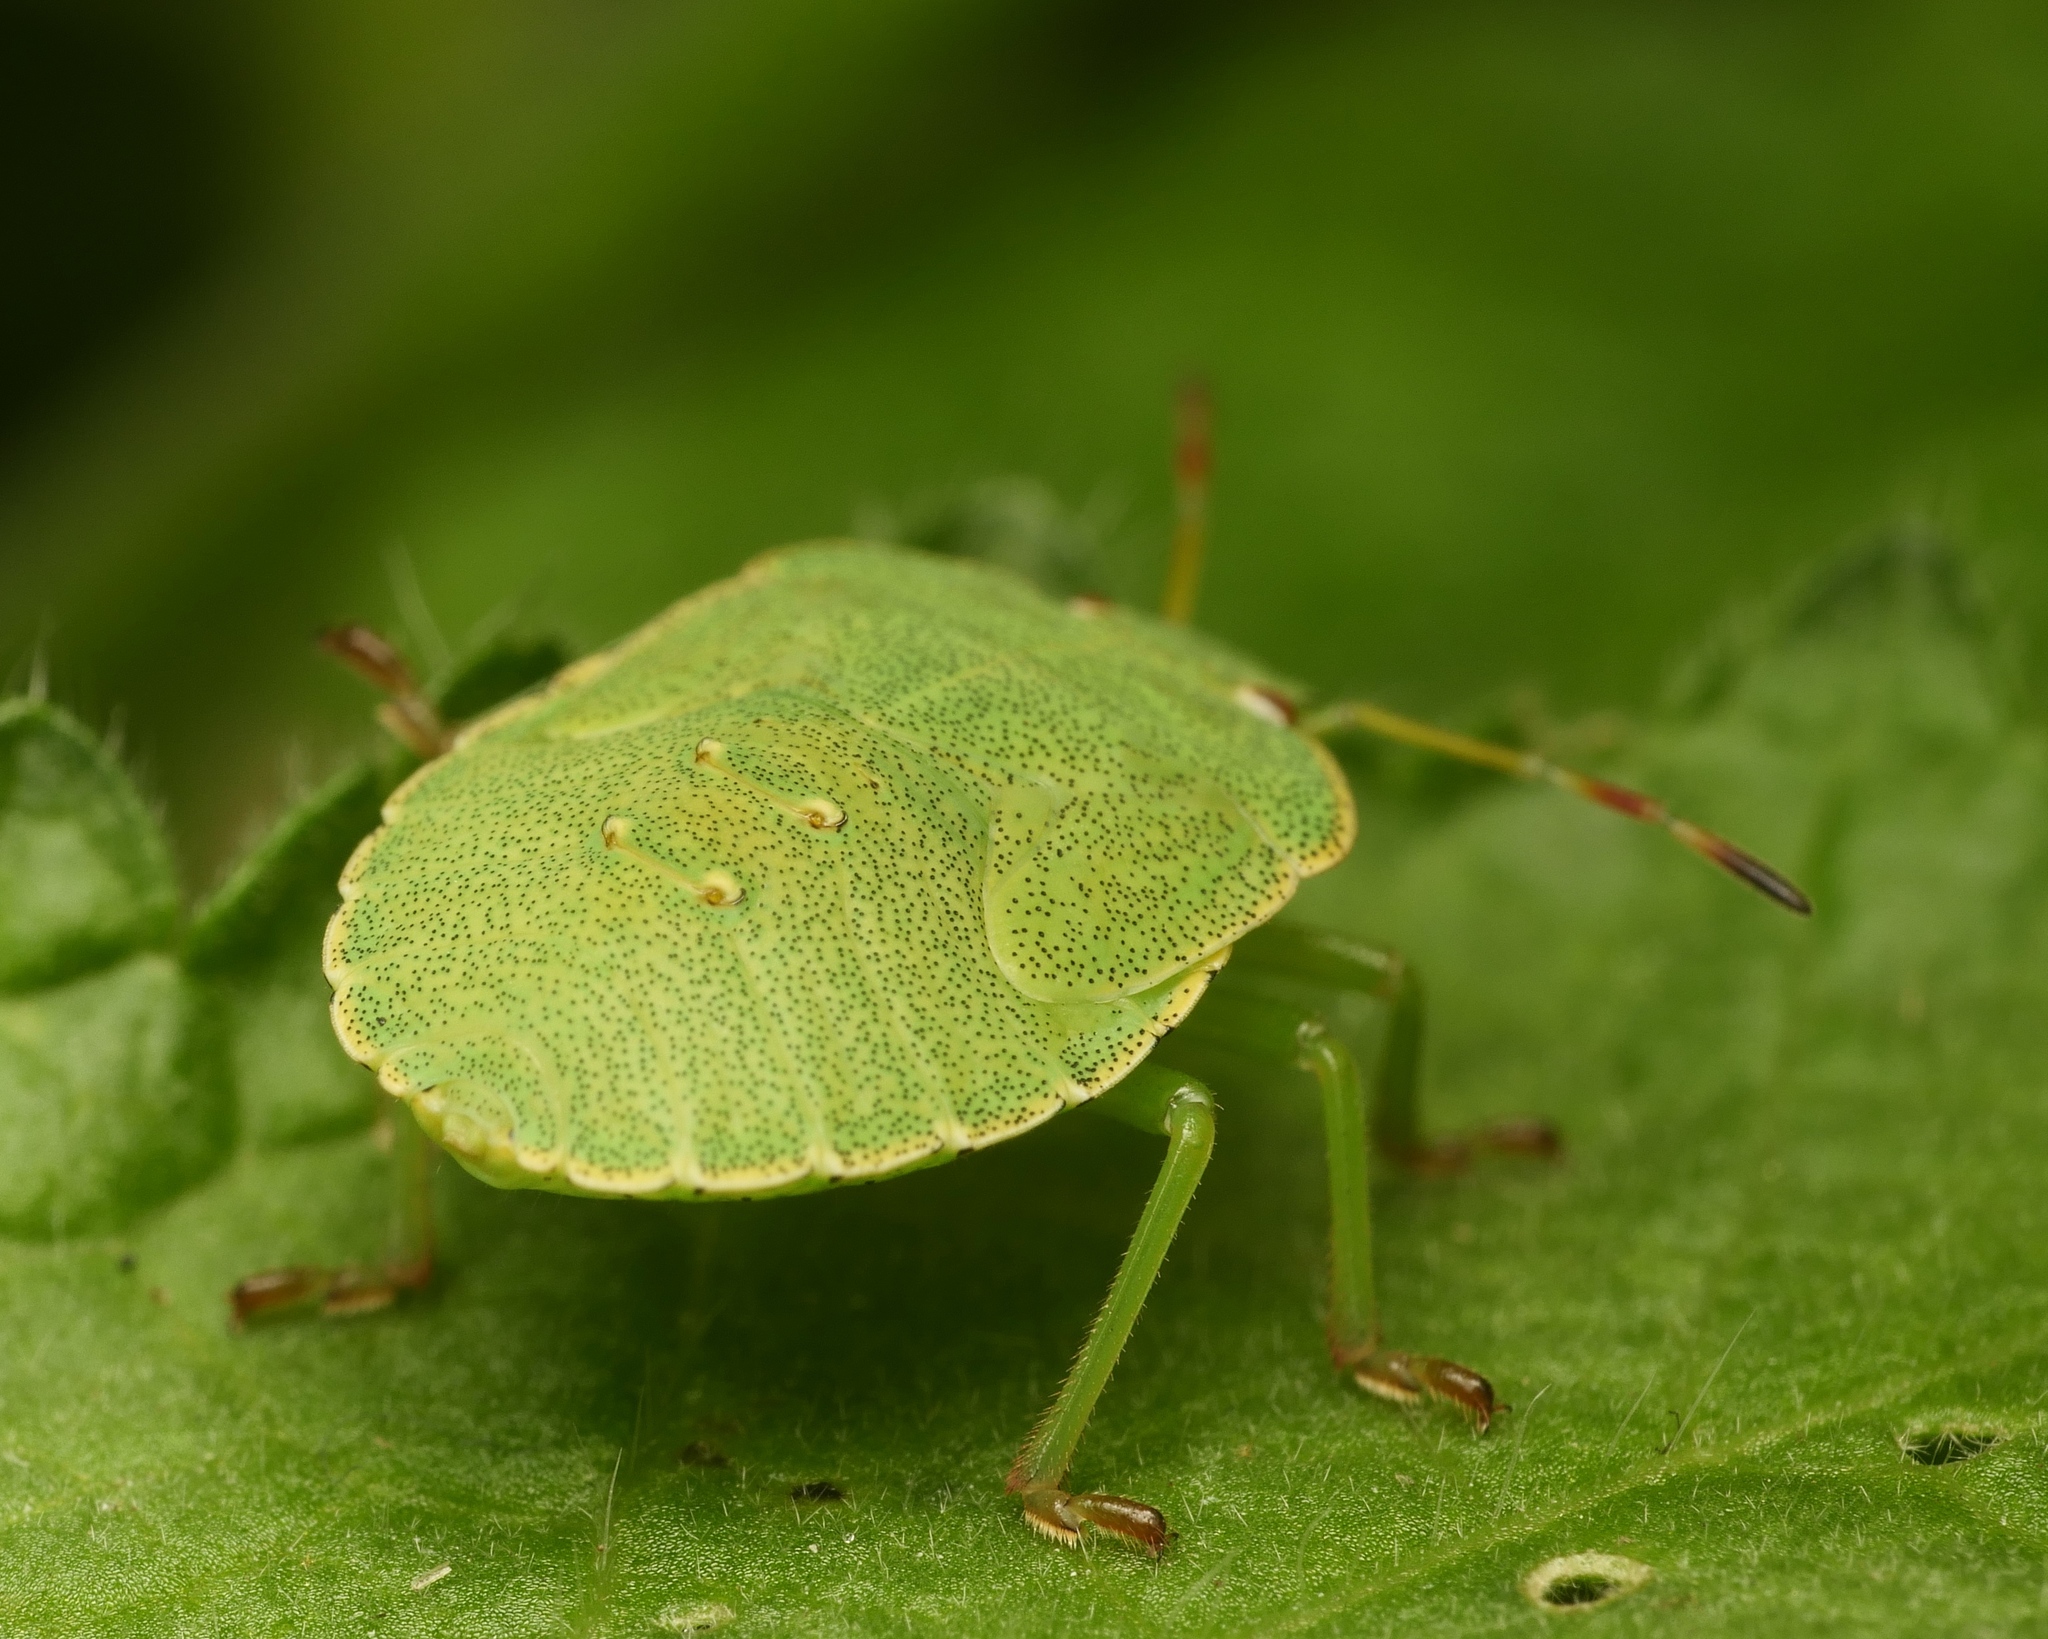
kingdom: Animalia
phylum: Arthropoda
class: Insecta
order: Hemiptera
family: Pentatomidae
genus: Palomena
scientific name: Palomena prasina
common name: Green shieldbug
